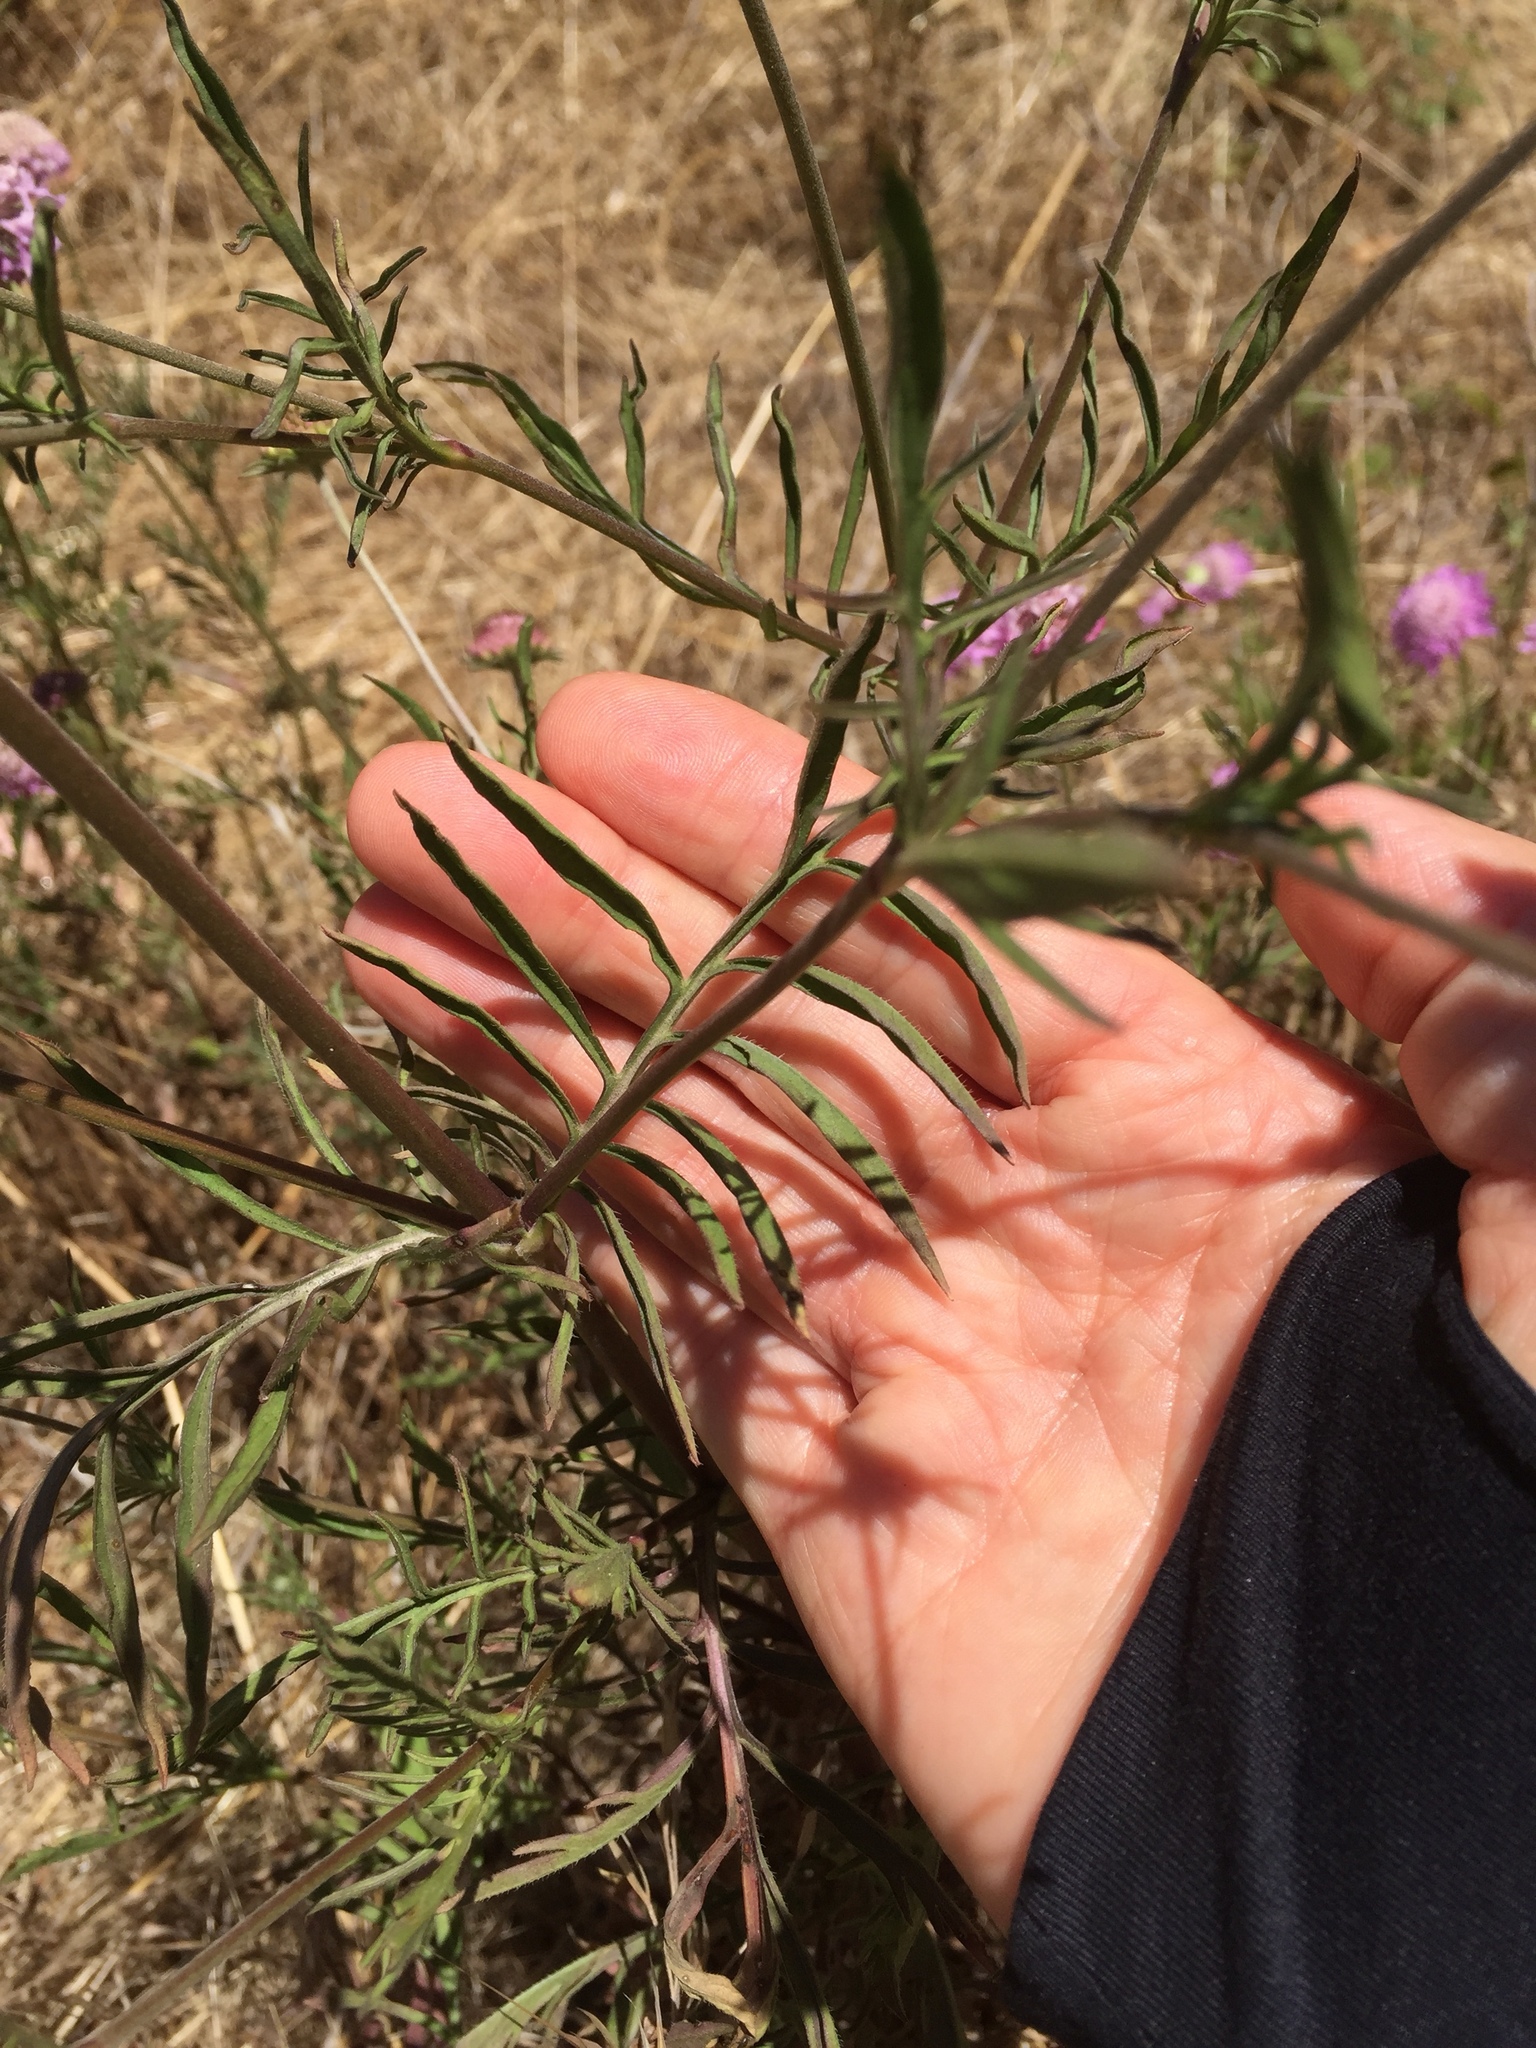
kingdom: Plantae
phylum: Tracheophyta
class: Magnoliopsida
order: Dipsacales
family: Caprifoliaceae
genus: Sixalix
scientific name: Sixalix atropurpurea
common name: Sweet scabious
